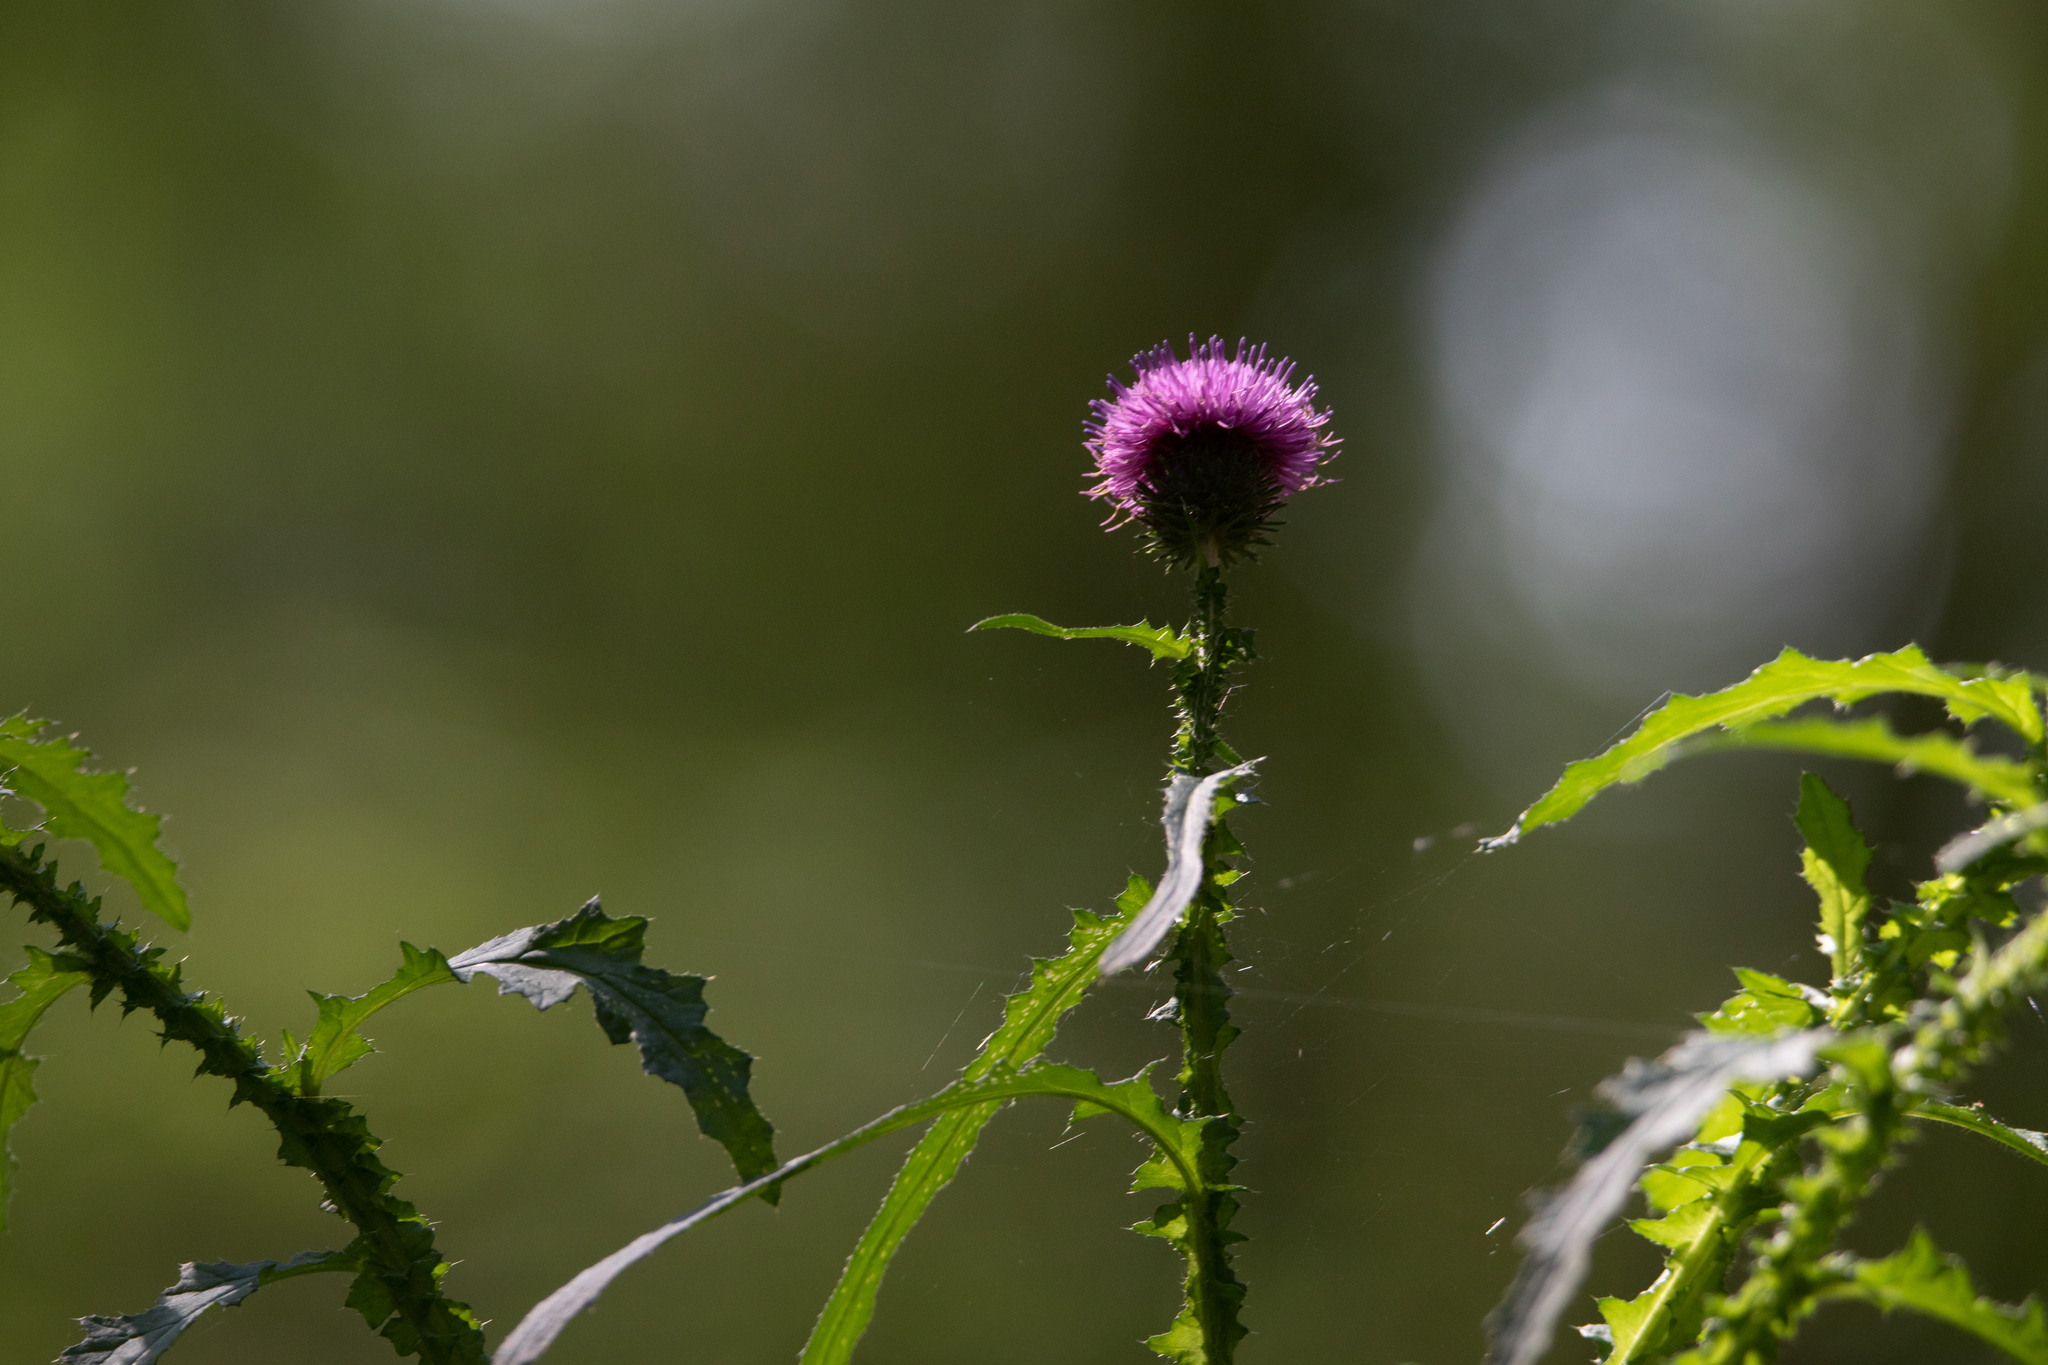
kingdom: Plantae
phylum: Tracheophyta
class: Magnoliopsida
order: Asterales
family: Asteraceae
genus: Carduus
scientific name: Carduus crispus
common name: Welted thistle
